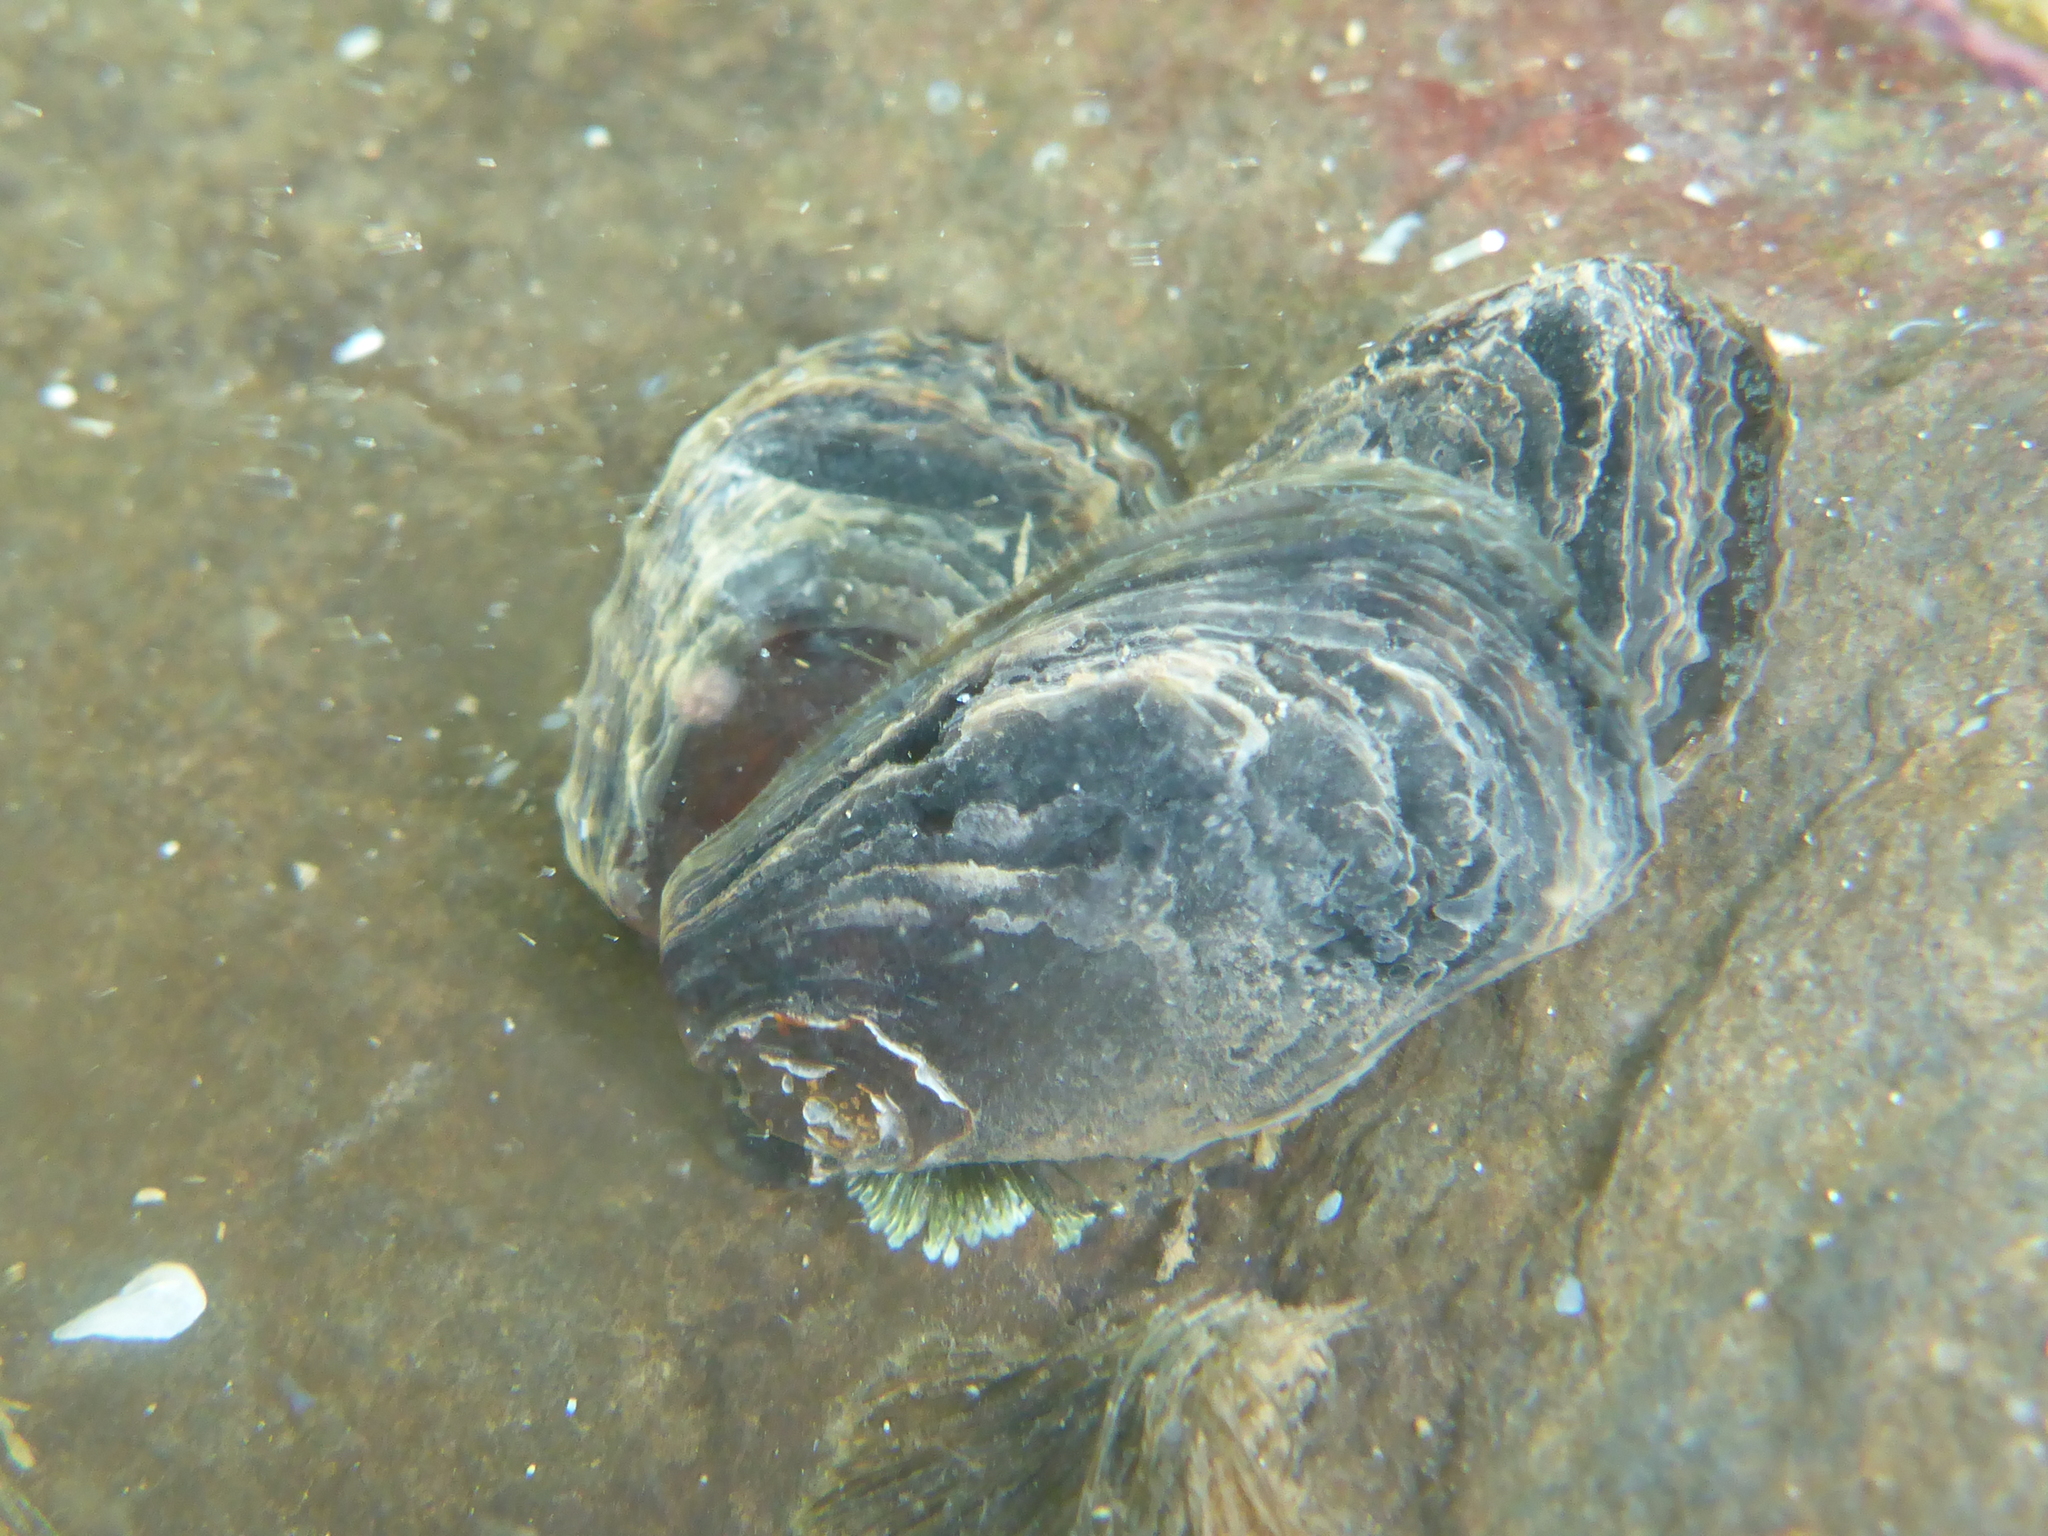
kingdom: Animalia
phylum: Mollusca
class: Bivalvia
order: Ostreida
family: Isognomonidae
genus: Isognomon
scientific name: Isognomon californicus
